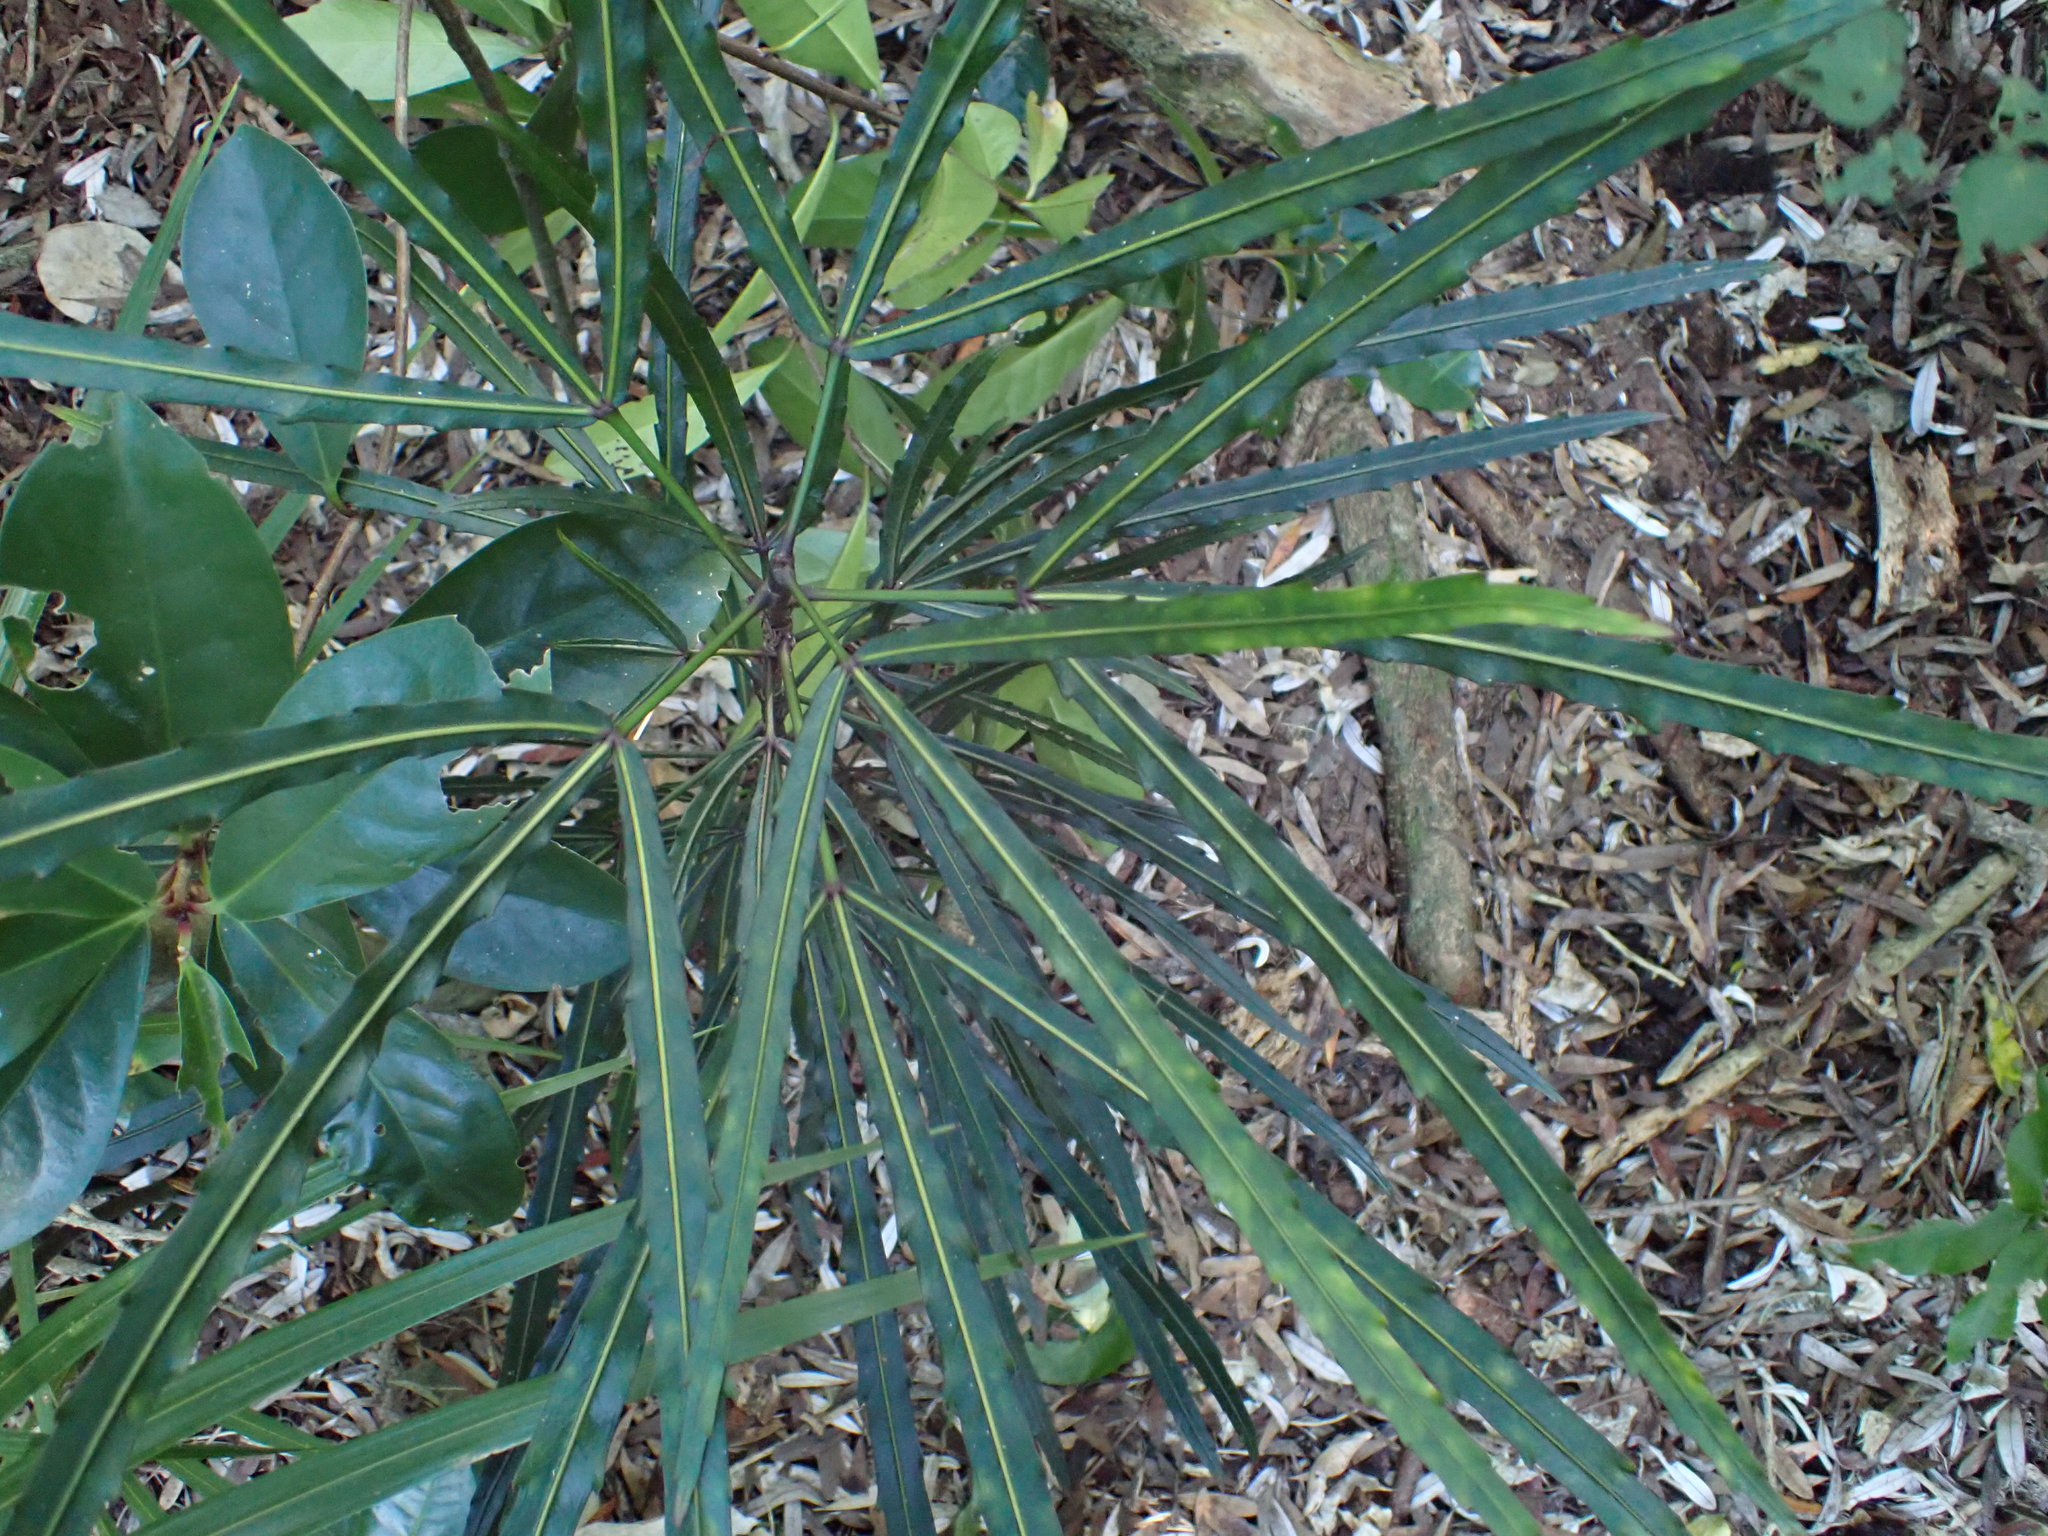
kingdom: Plantae
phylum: Tracheophyta
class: Magnoliopsida
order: Apiales
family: Araliaceae
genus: Pseudopanax
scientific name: Pseudopanax
